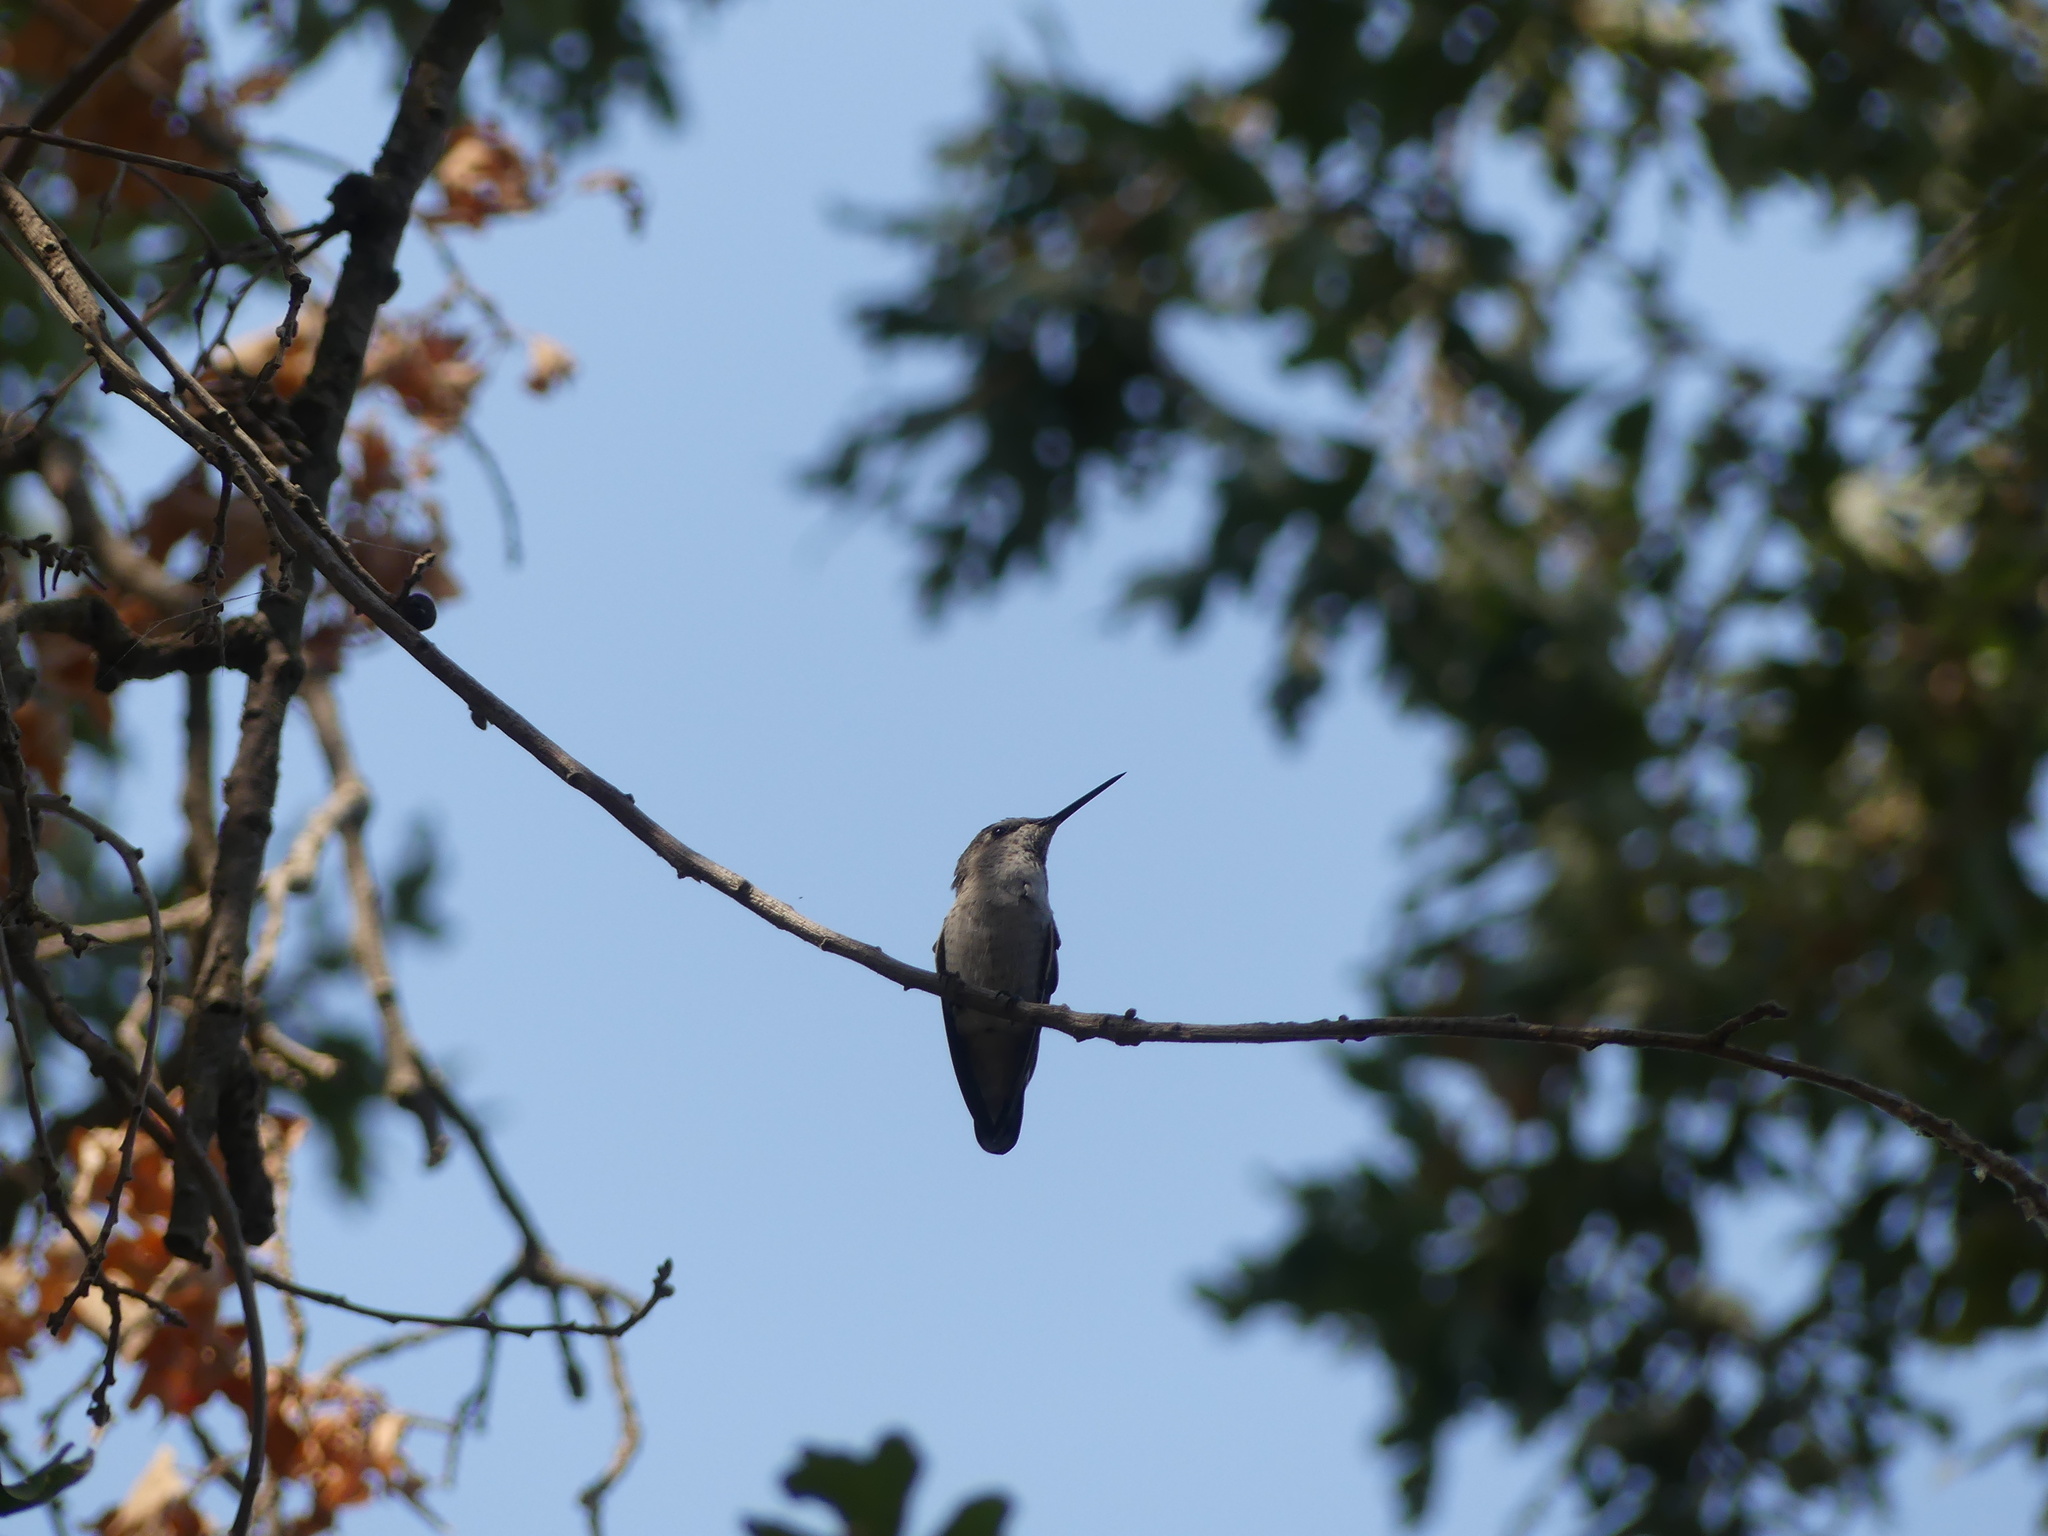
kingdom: Animalia
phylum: Chordata
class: Aves
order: Apodiformes
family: Trochilidae
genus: Calypte
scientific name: Calypte anna
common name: Anna's hummingbird
